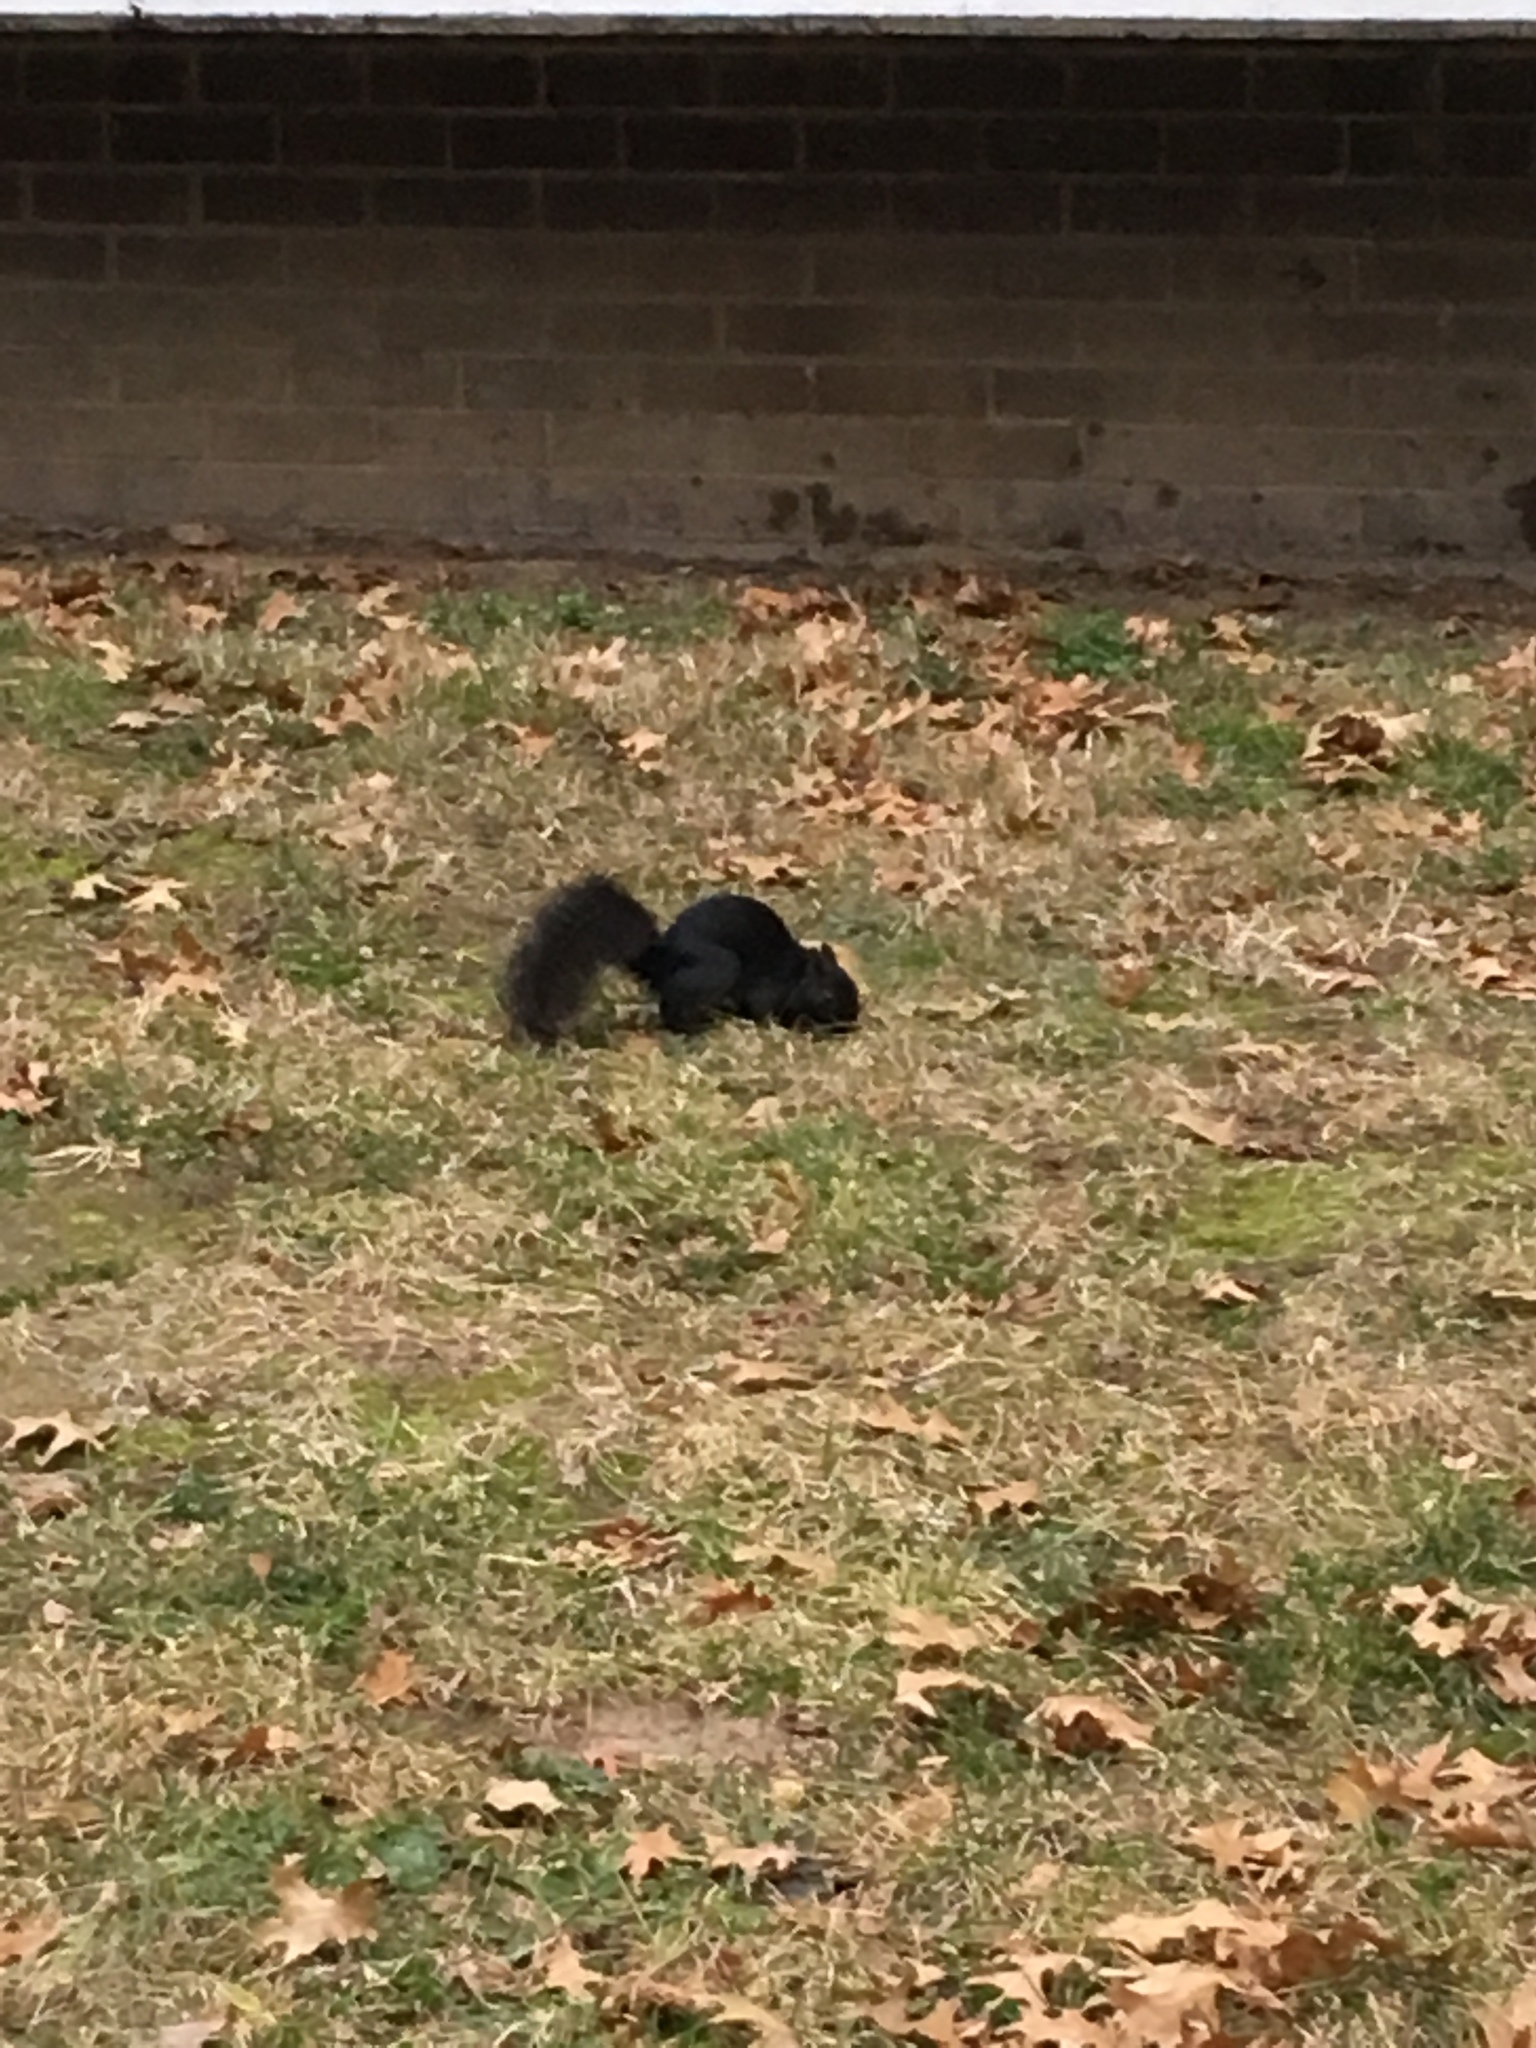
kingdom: Animalia
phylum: Chordata
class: Mammalia
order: Rodentia
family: Sciuridae
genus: Sciurus
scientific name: Sciurus carolinensis
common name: Eastern gray squirrel
